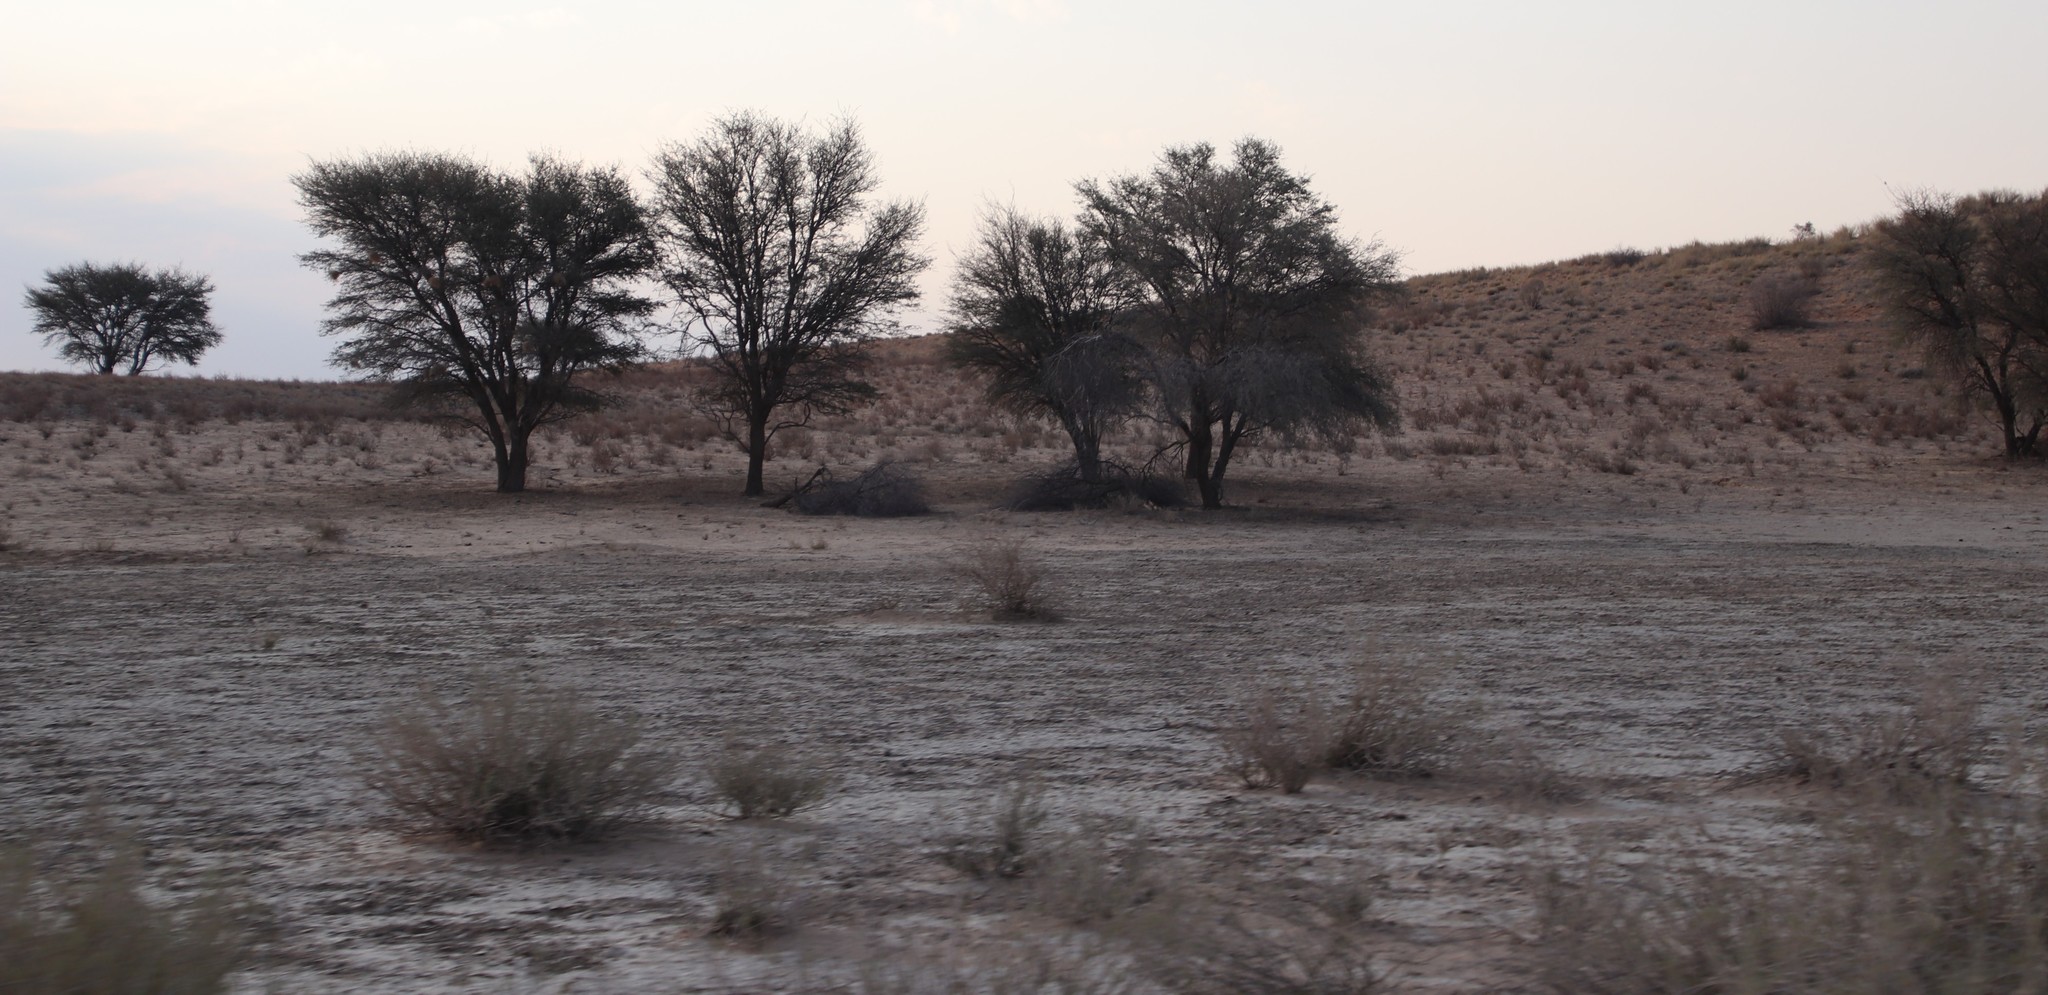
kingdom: Plantae
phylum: Tracheophyta
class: Magnoliopsida
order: Fabales
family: Fabaceae
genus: Vachellia
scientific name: Vachellia haematoxylon
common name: Grey camel thorn
